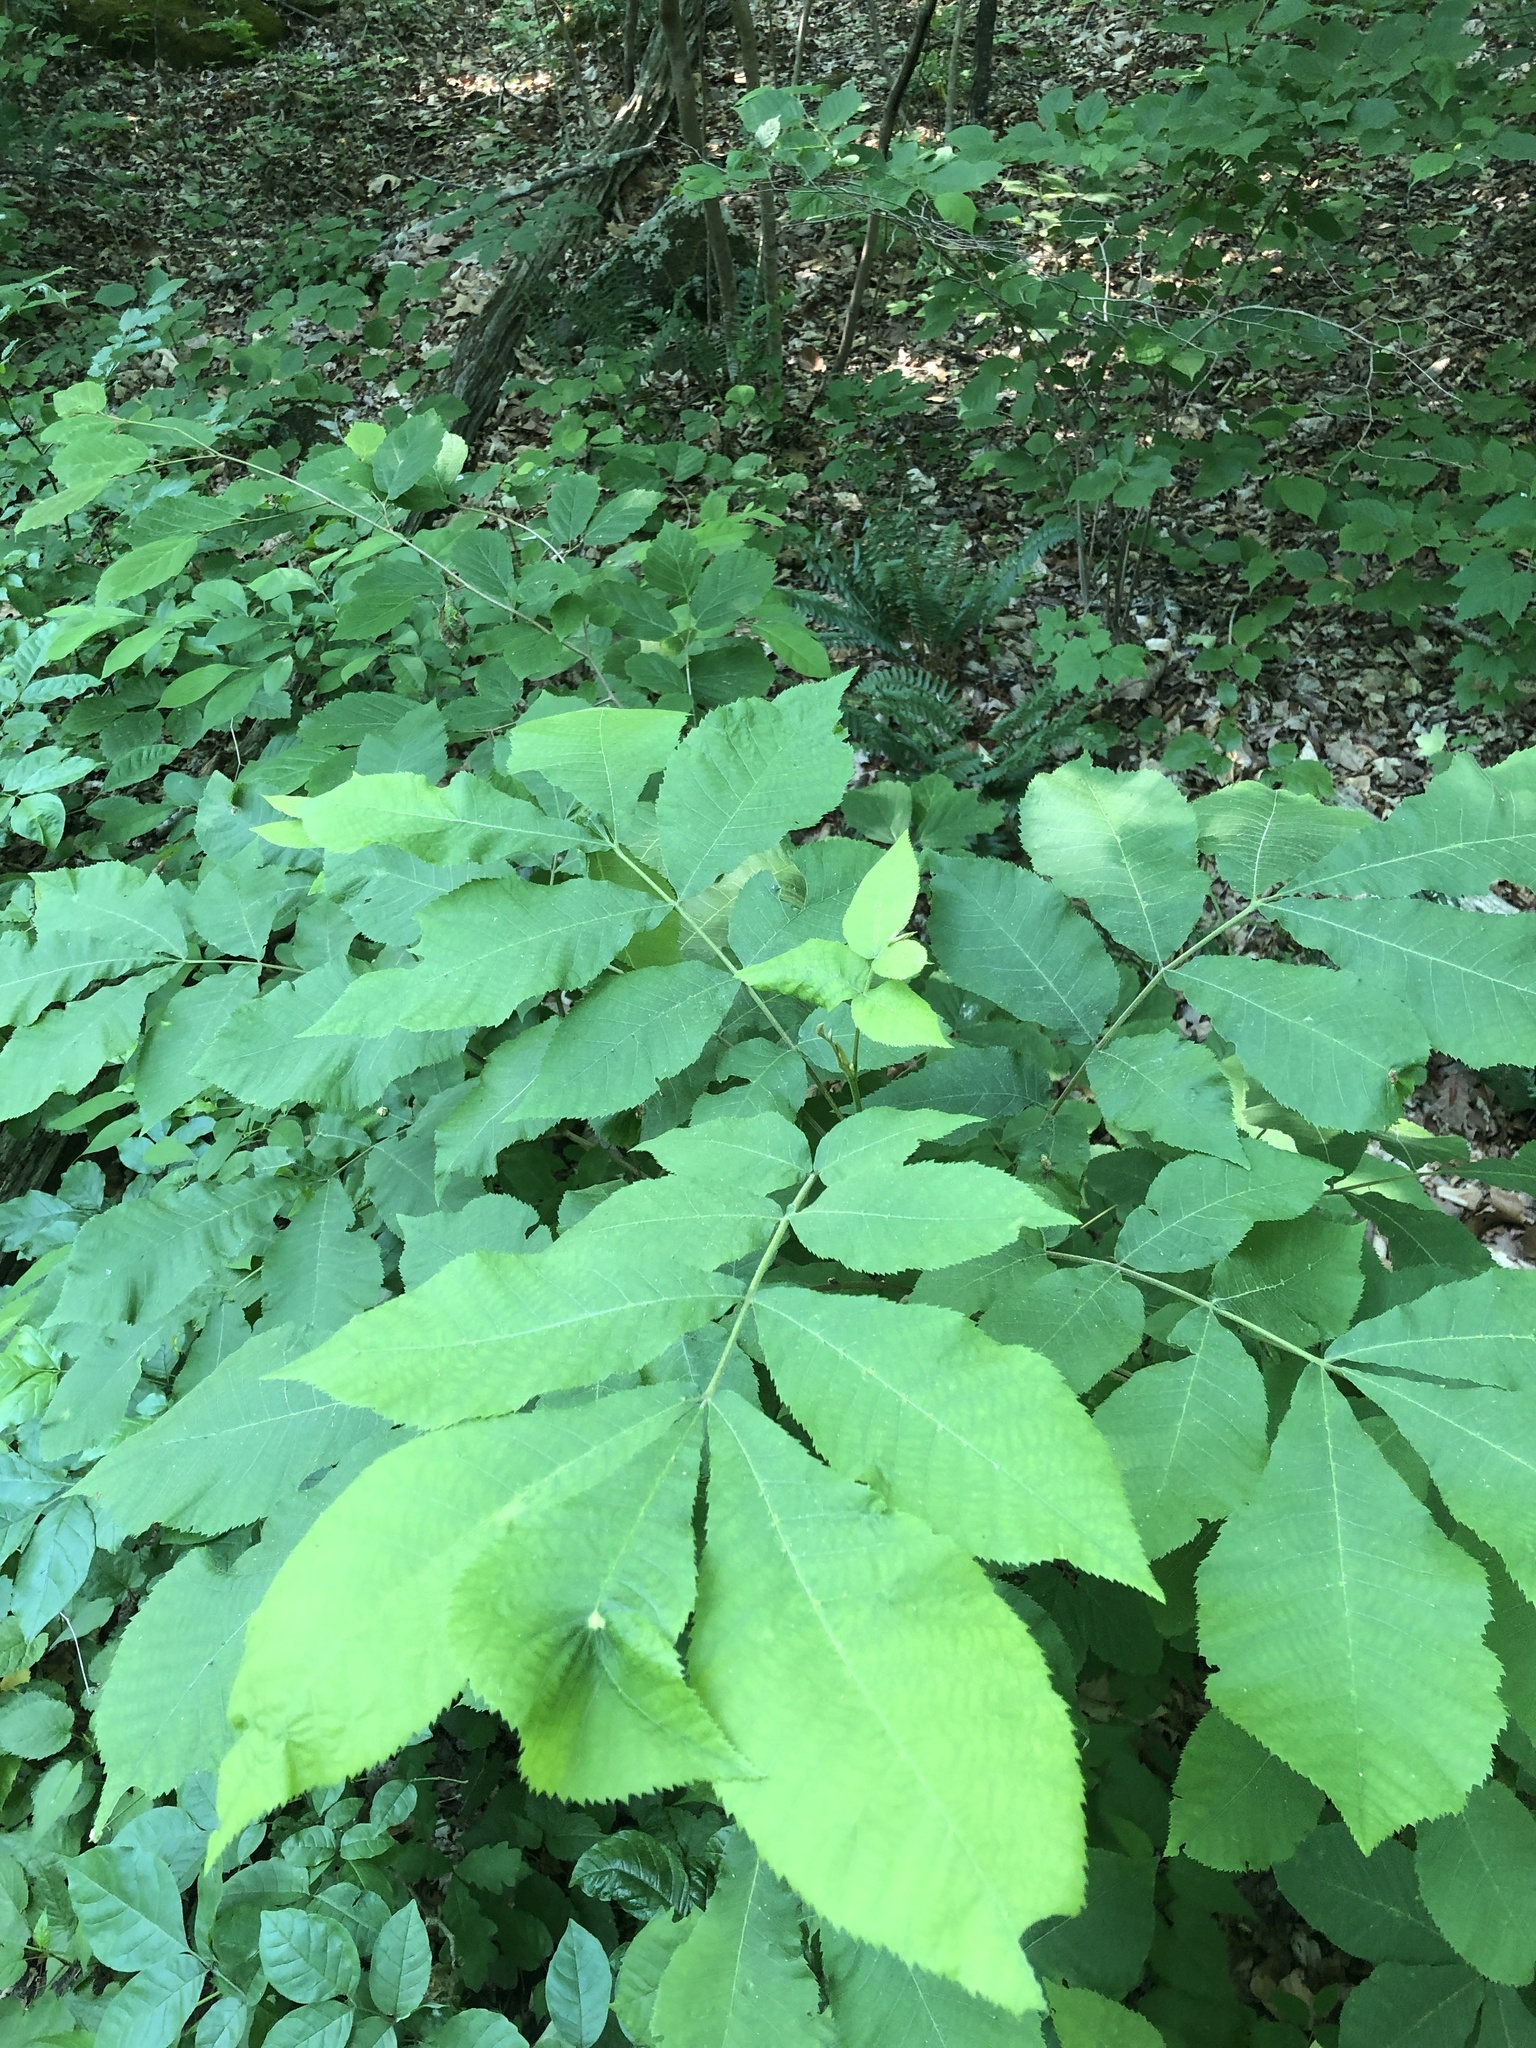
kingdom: Plantae
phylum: Tracheophyta
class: Magnoliopsida
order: Fagales
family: Juglandaceae
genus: Carya
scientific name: Carya cordiformis
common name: Bitternut hickory
